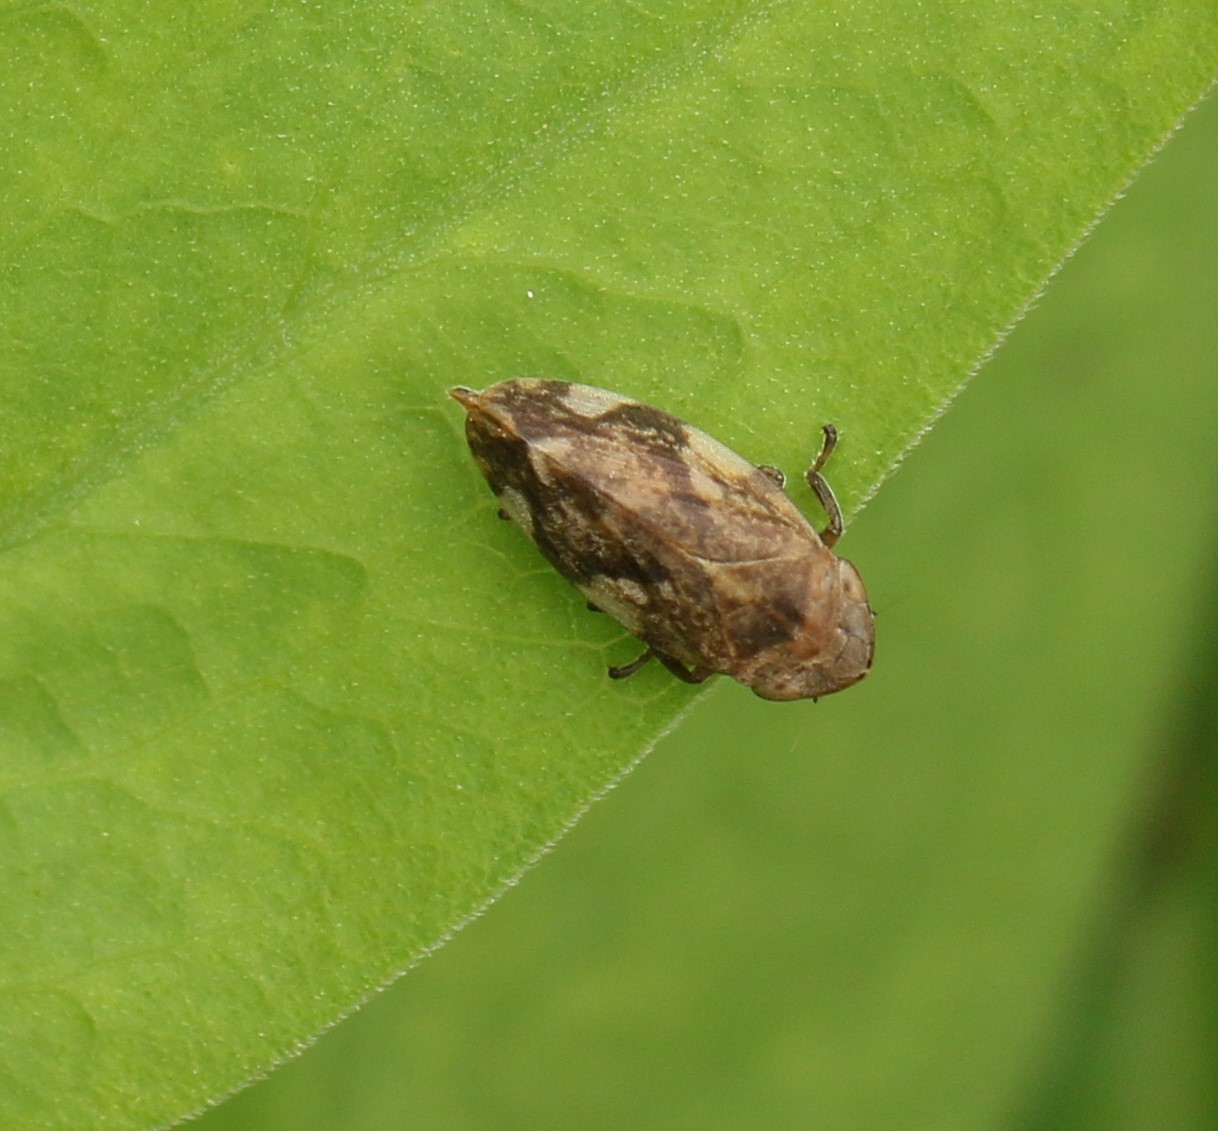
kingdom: Animalia
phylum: Arthropoda
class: Insecta
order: Hemiptera
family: Aphrophoridae
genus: Philaenus
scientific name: Philaenus spumarius
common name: Meadow spittlebug
